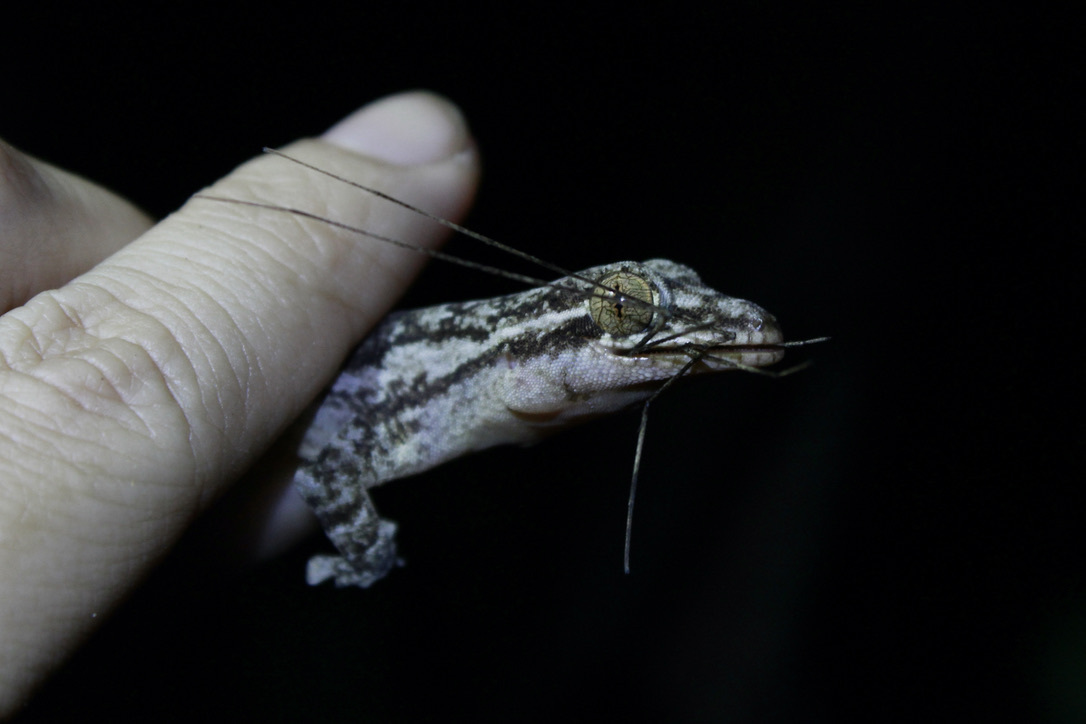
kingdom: Animalia
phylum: Chordata
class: Squamata
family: Phyllodactylidae
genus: Thecadactylus
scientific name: Thecadactylus rapicauda
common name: Turnip-tailed gecko
